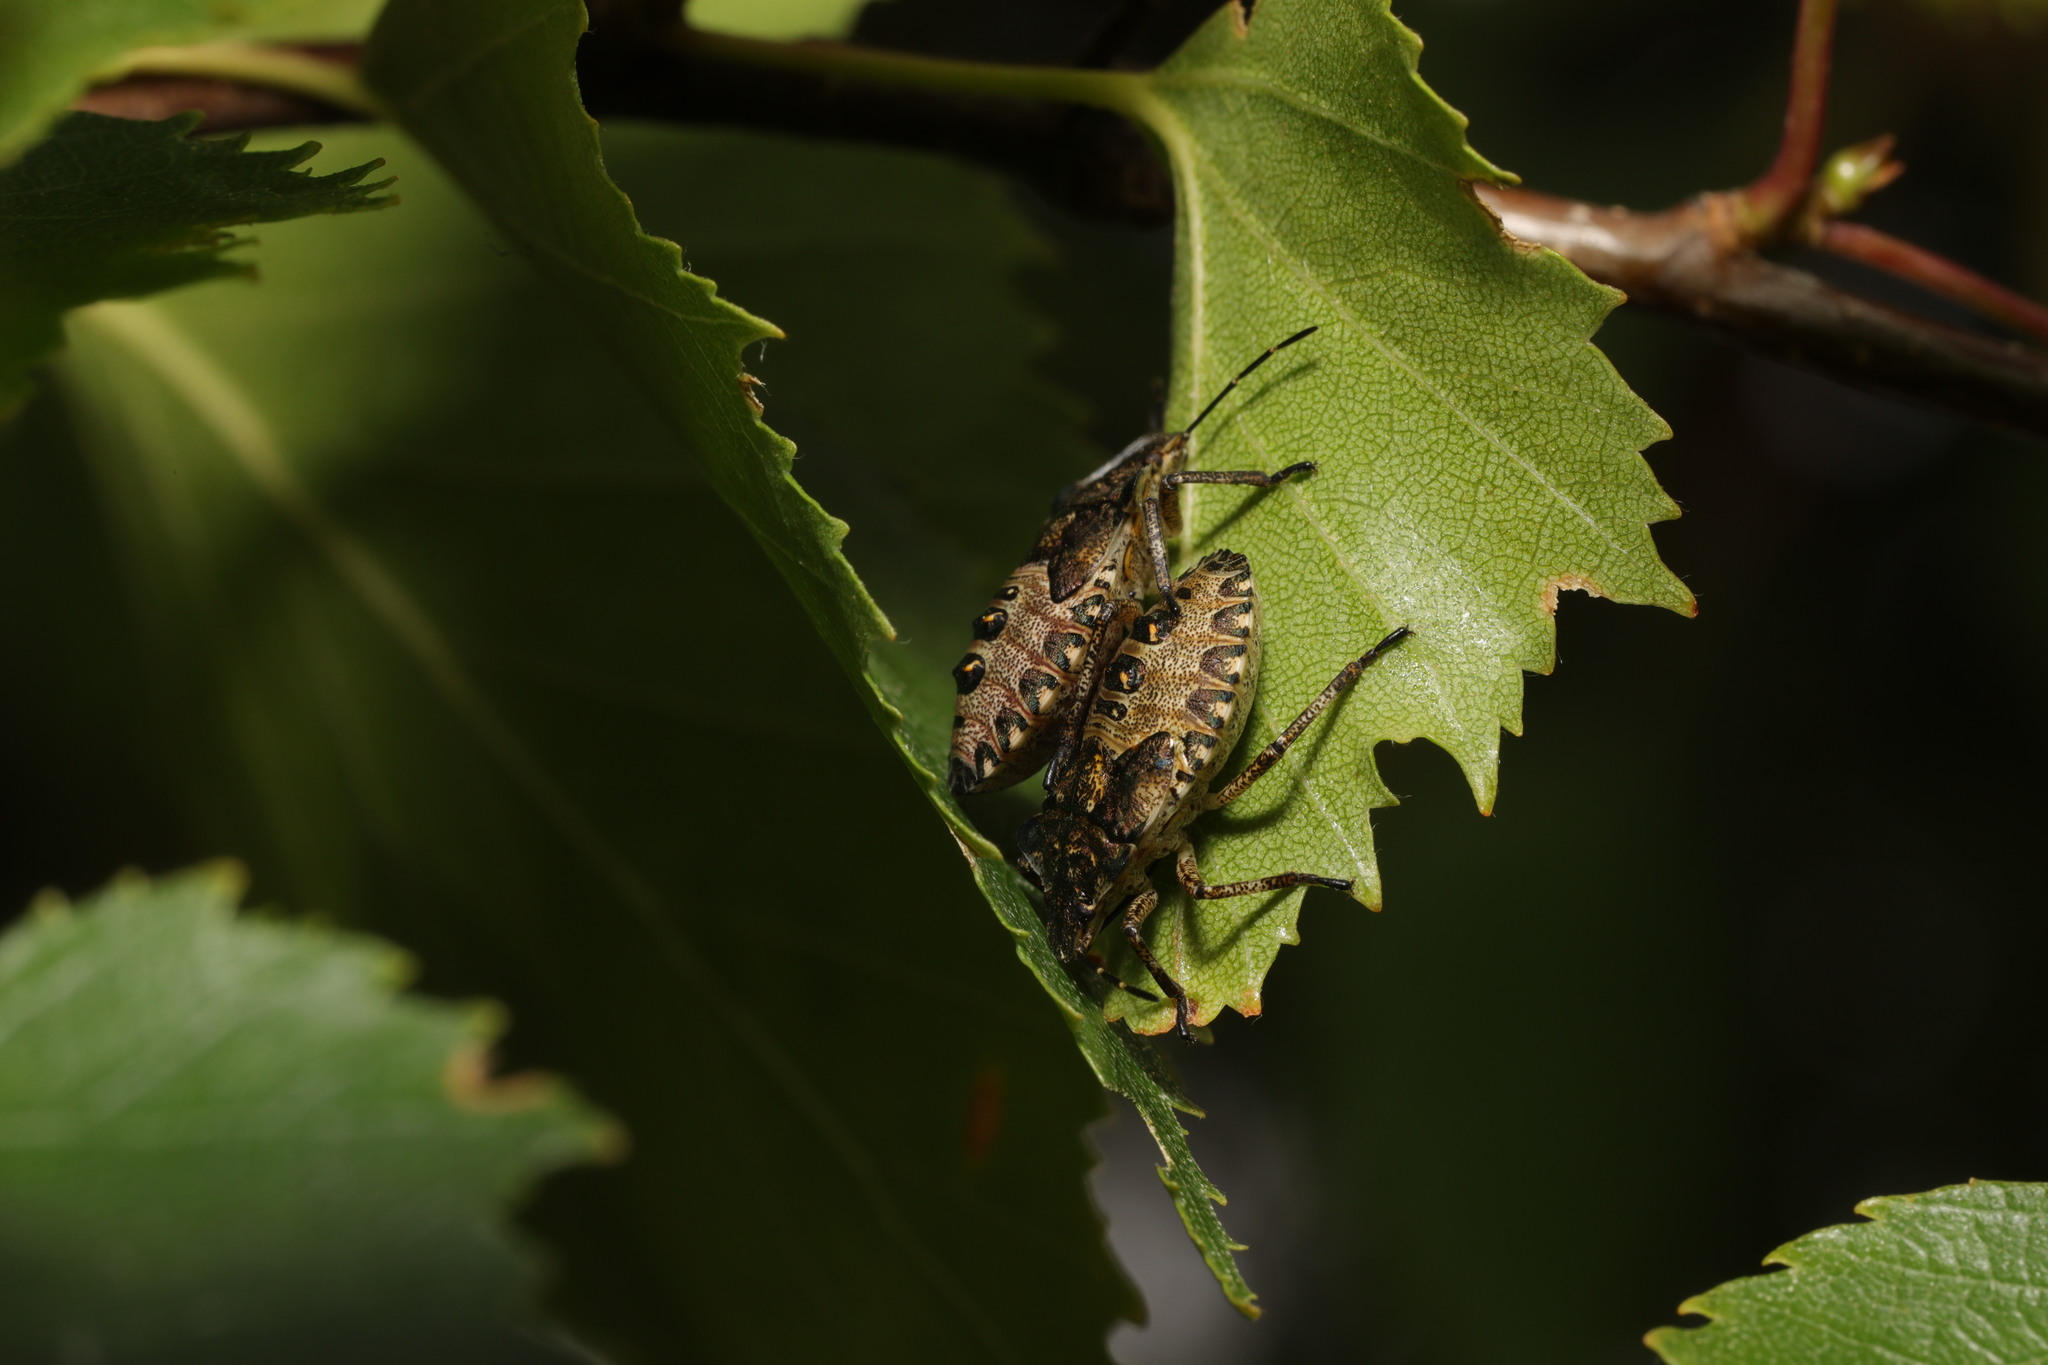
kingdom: Animalia
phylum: Arthropoda
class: Insecta
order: Hemiptera
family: Pentatomidae
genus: Pentatoma
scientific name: Pentatoma rufipes
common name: Forest bug
